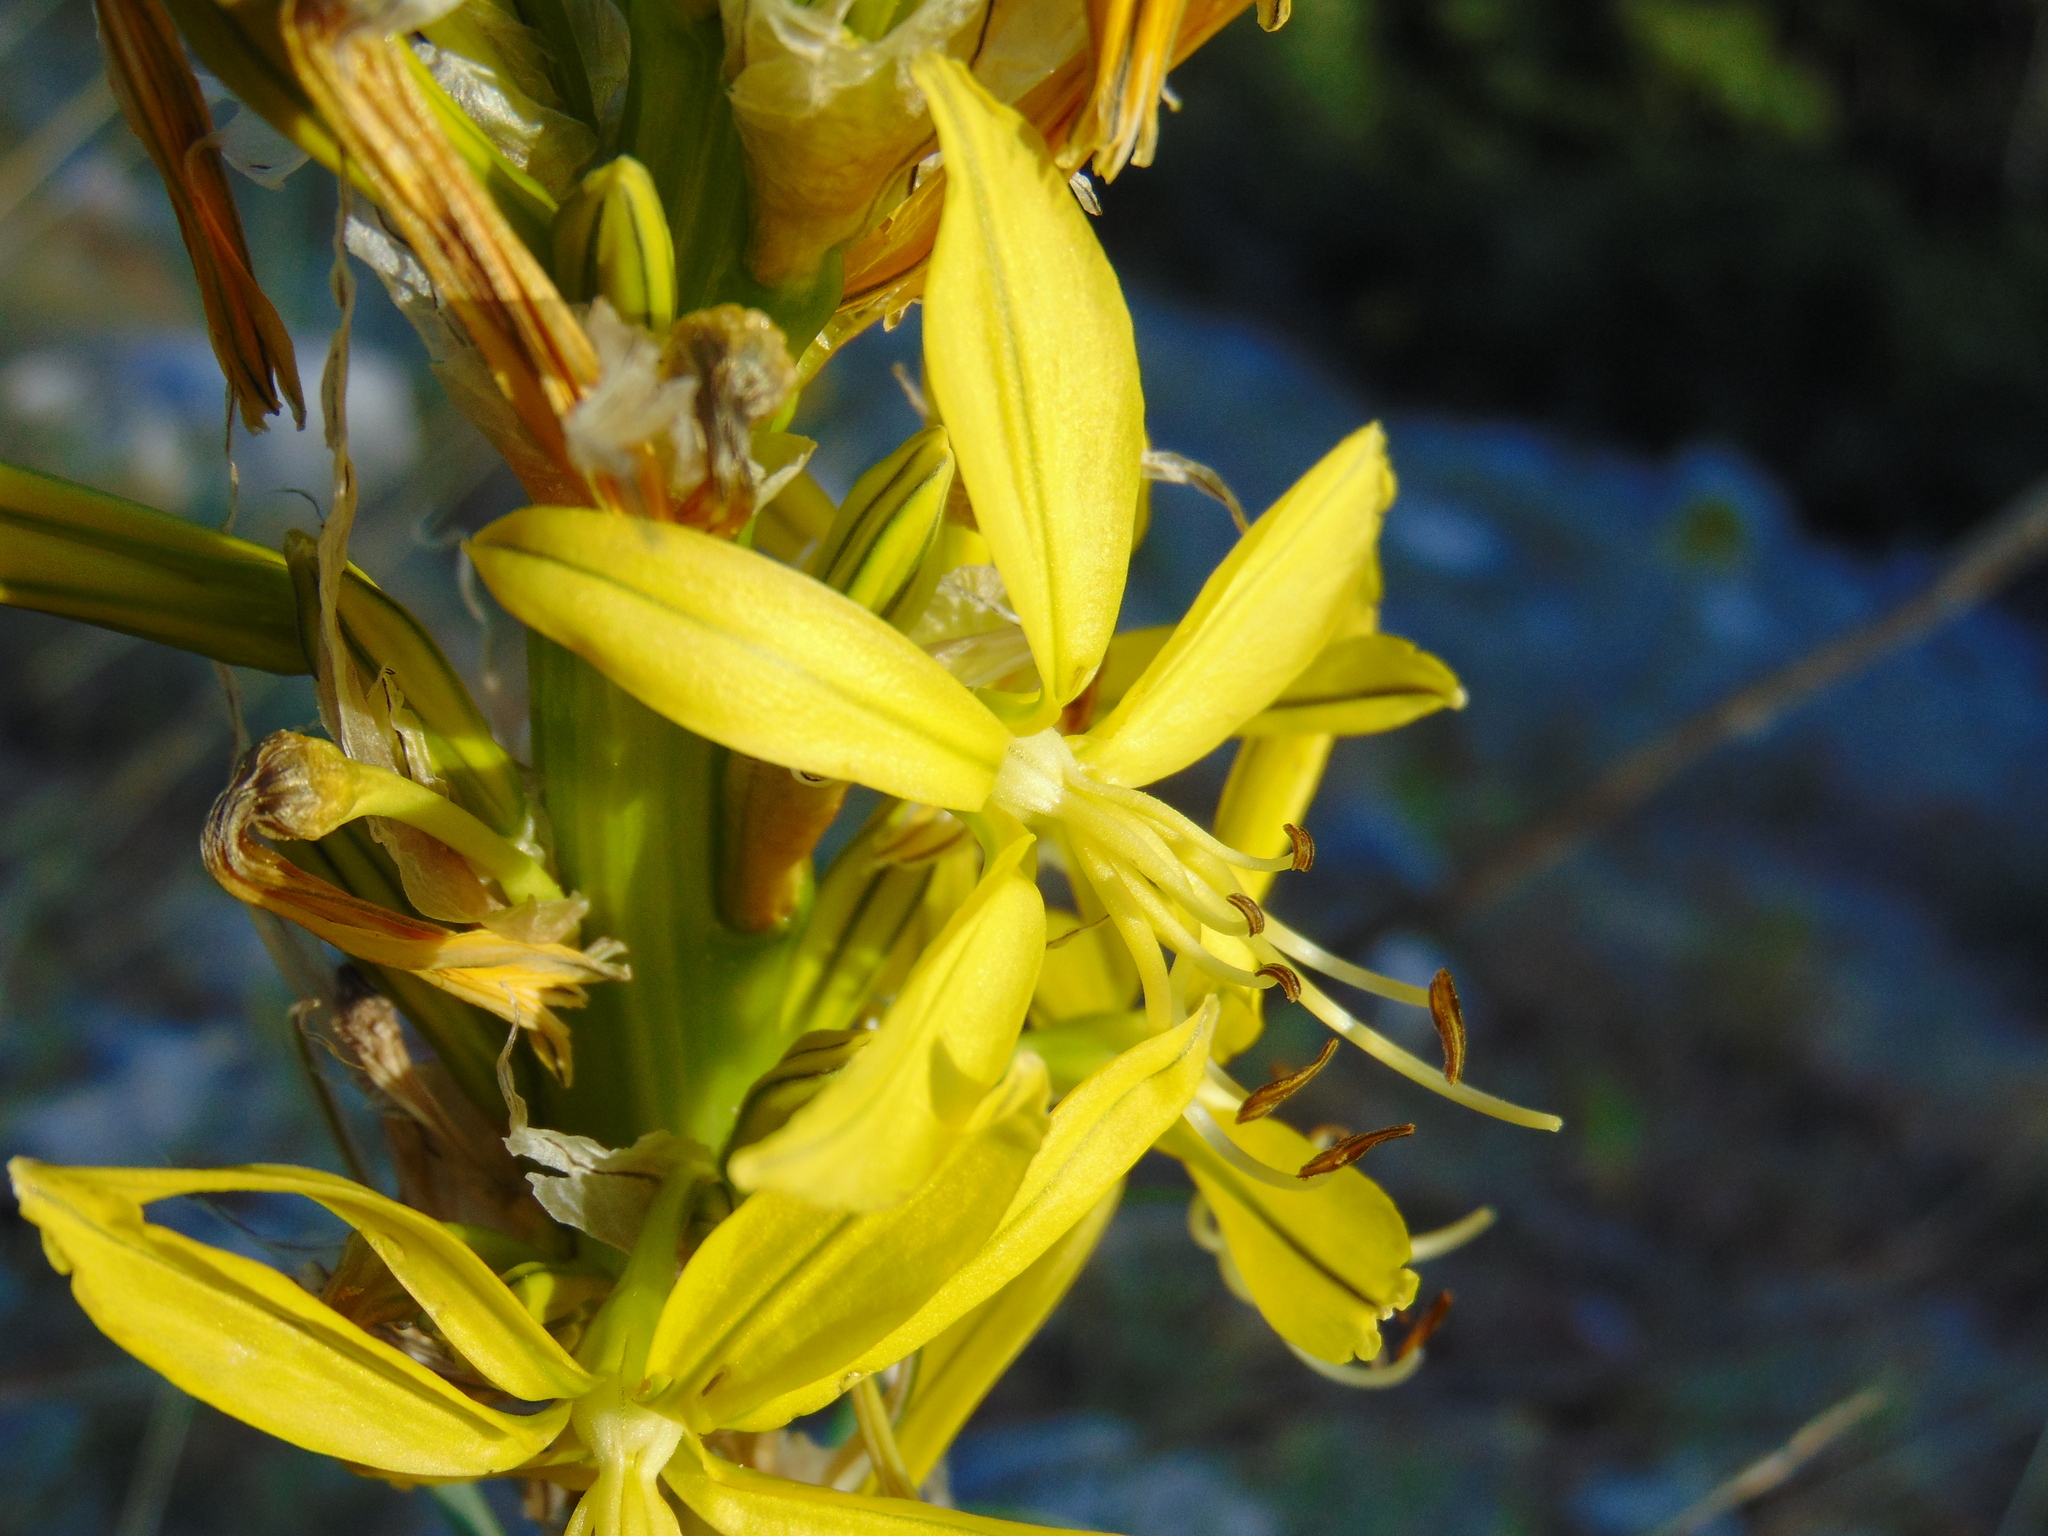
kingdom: Plantae
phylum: Tracheophyta
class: Liliopsida
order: Asparagales
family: Asphodelaceae
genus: Asphodeline
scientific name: Asphodeline lutea
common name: Yellow asphodel
